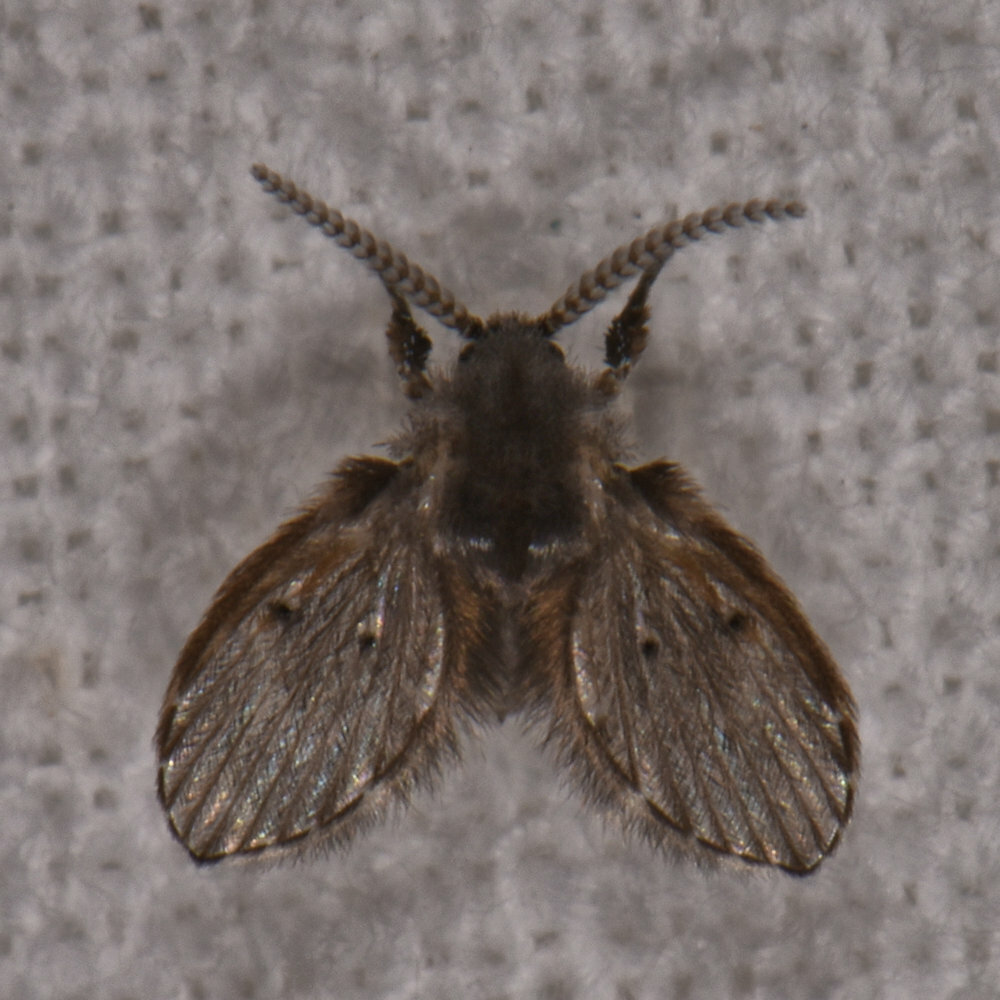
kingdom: Animalia
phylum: Arthropoda
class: Insecta
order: Diptera
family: Psychodidae
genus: Clogmia
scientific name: Clogmia albipunctatus
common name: White-spotted moth fly
